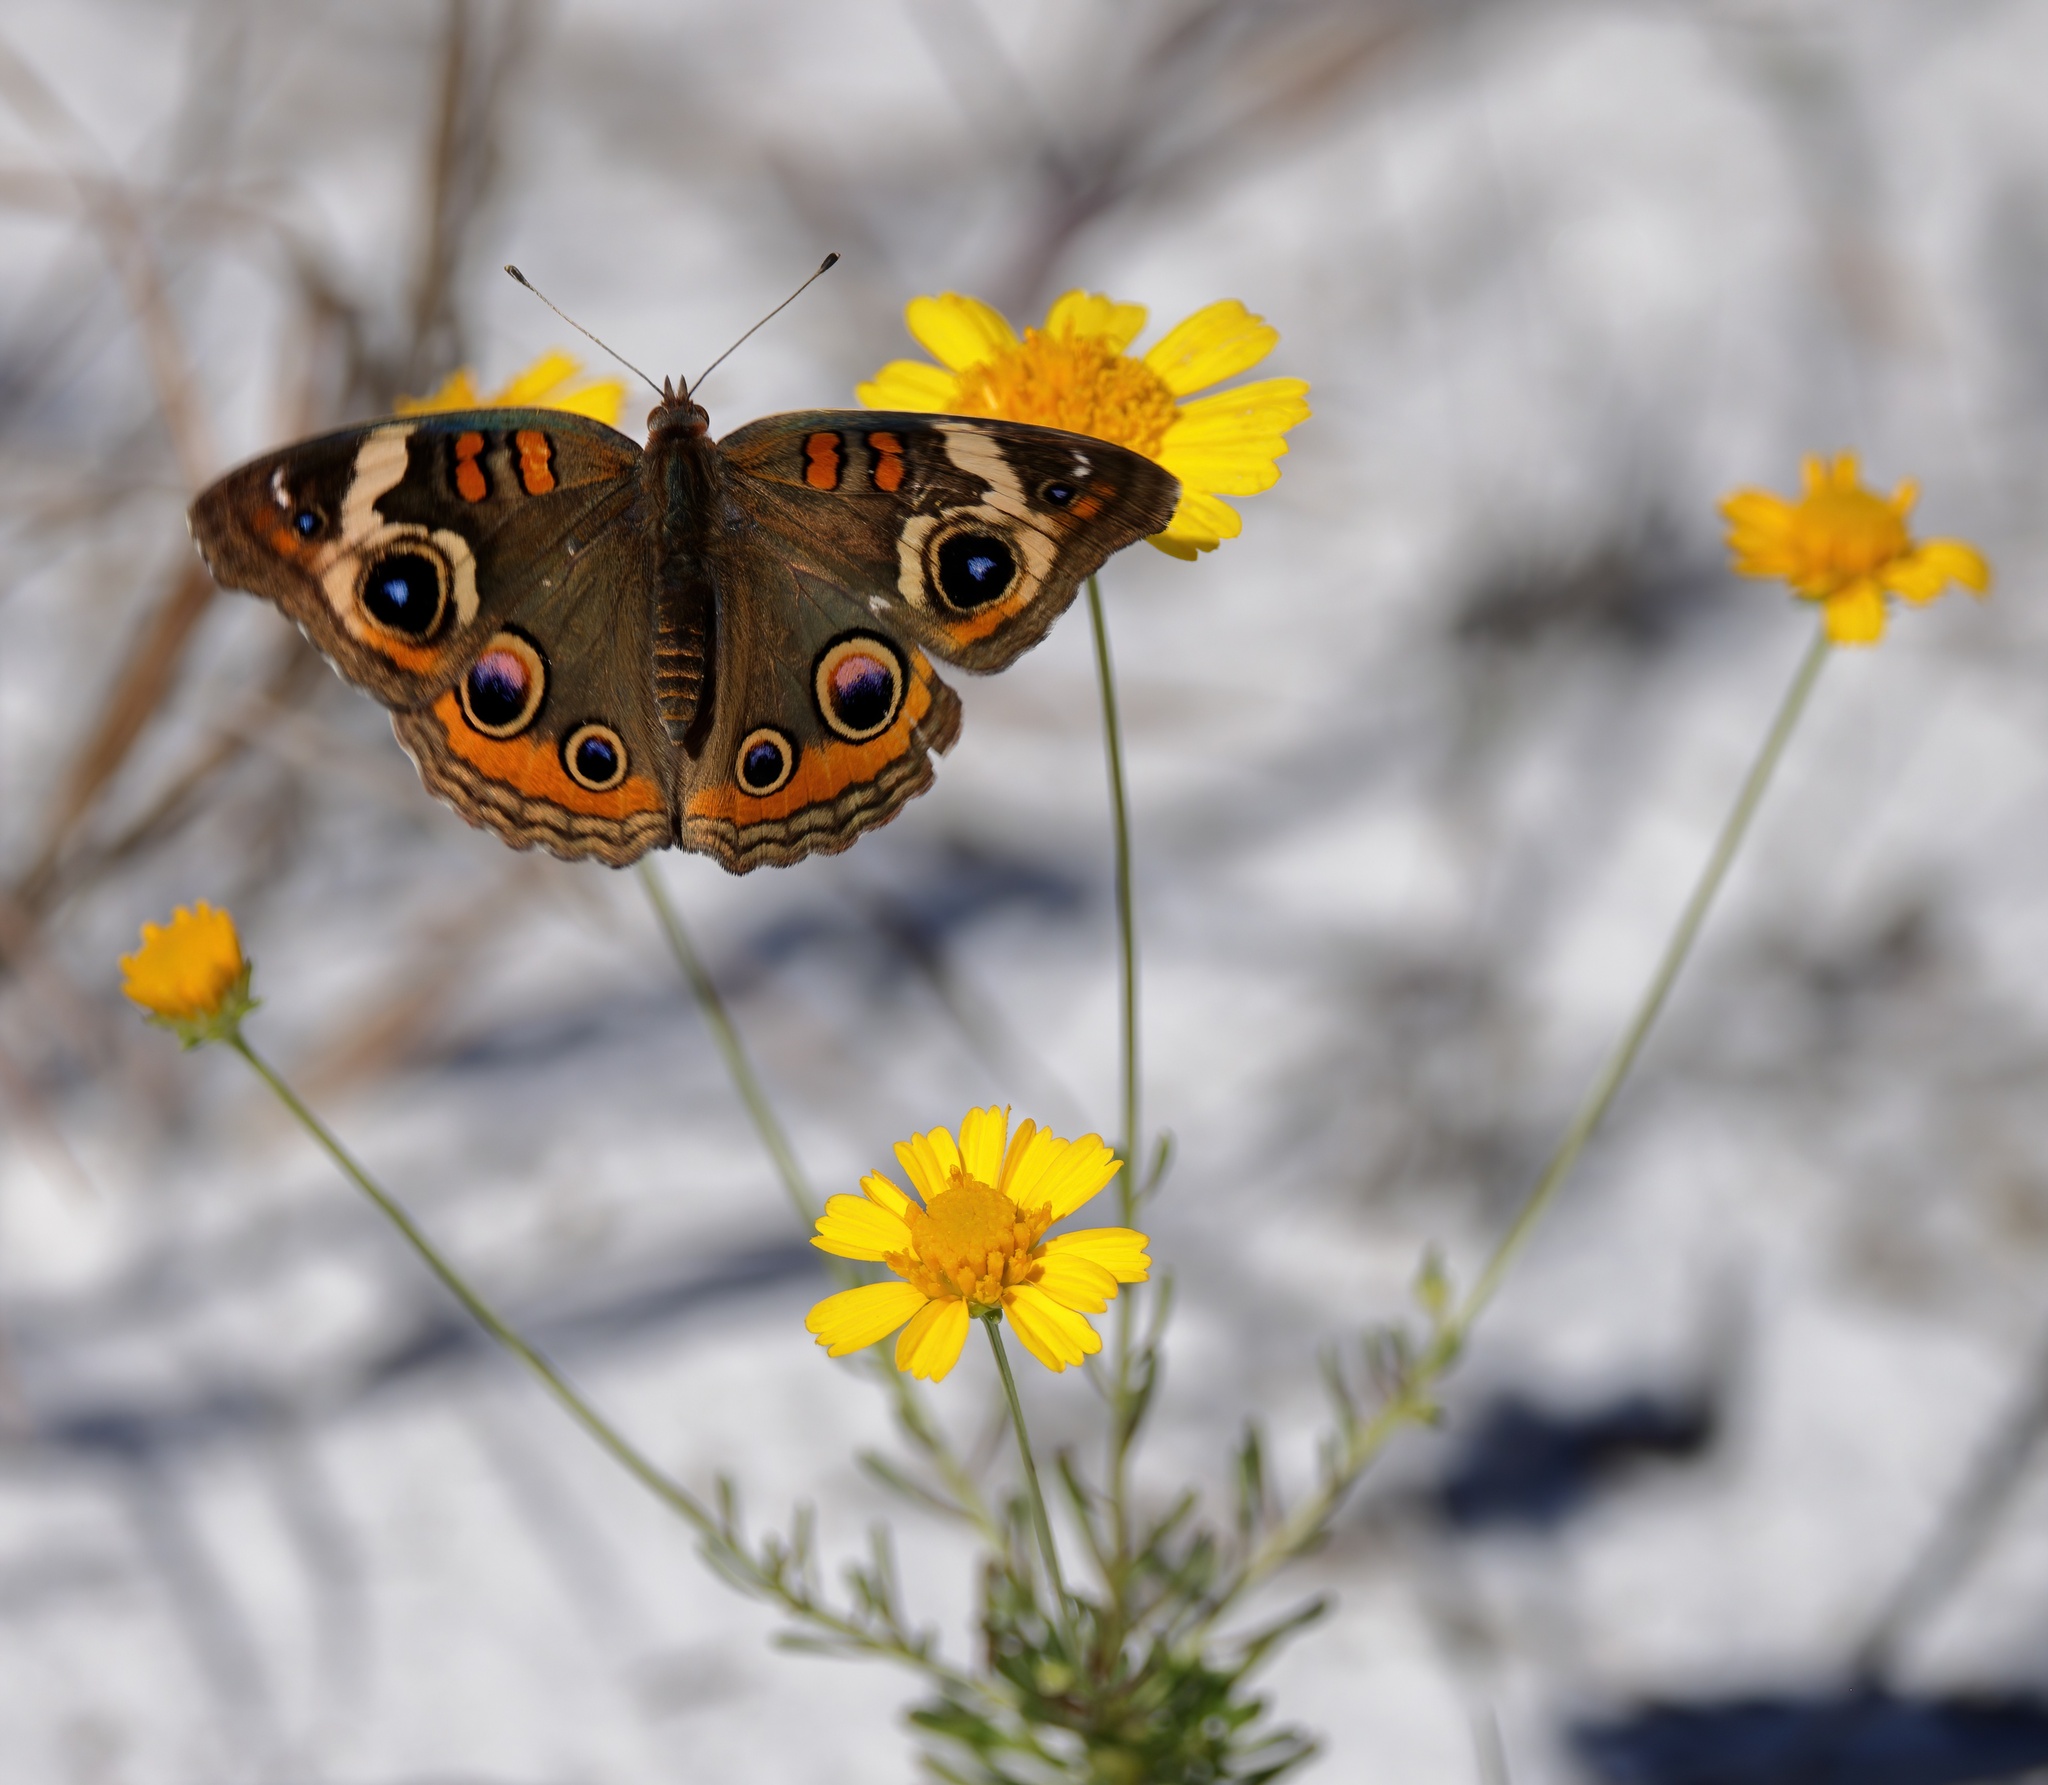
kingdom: Animalia
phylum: Arthropoda
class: Insecta
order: Lepidoptera
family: Nymphalidae
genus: Junonia
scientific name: Junonia coenia
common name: Common buckeye
